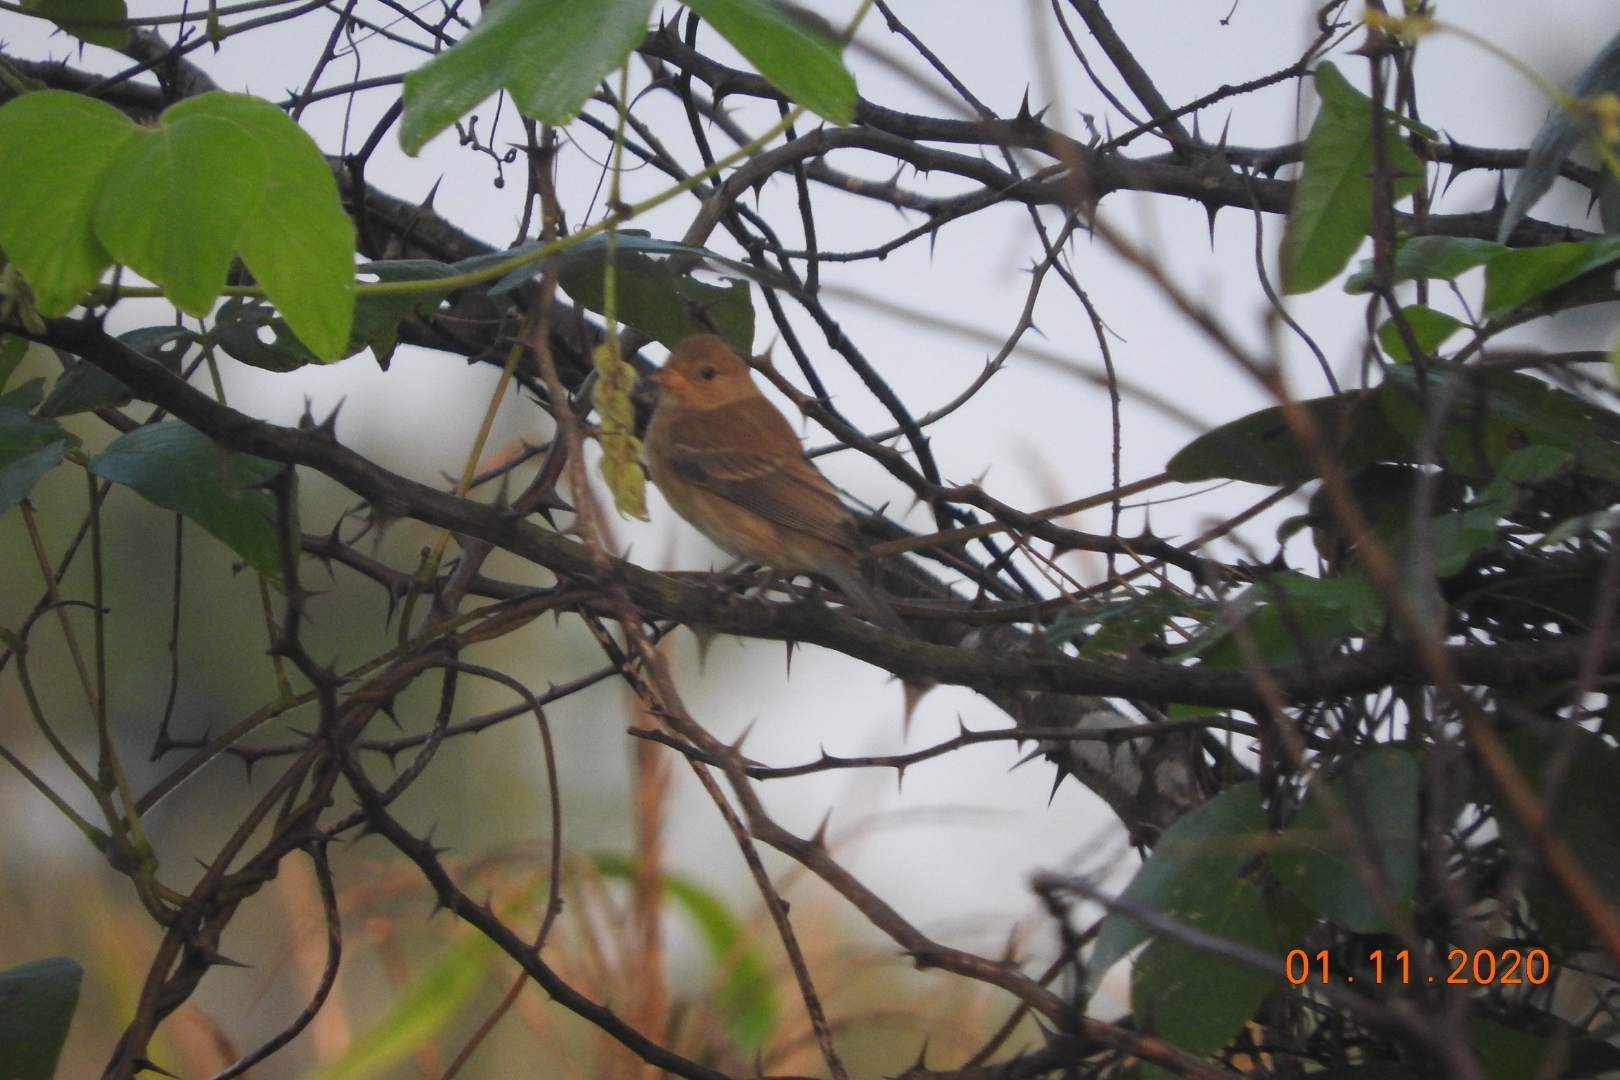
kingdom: Animalia
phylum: Chordata
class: Aves
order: Passeriformes
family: Cardinalidae
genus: Passerina
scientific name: Passerina cyanea
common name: Indigo bunting
